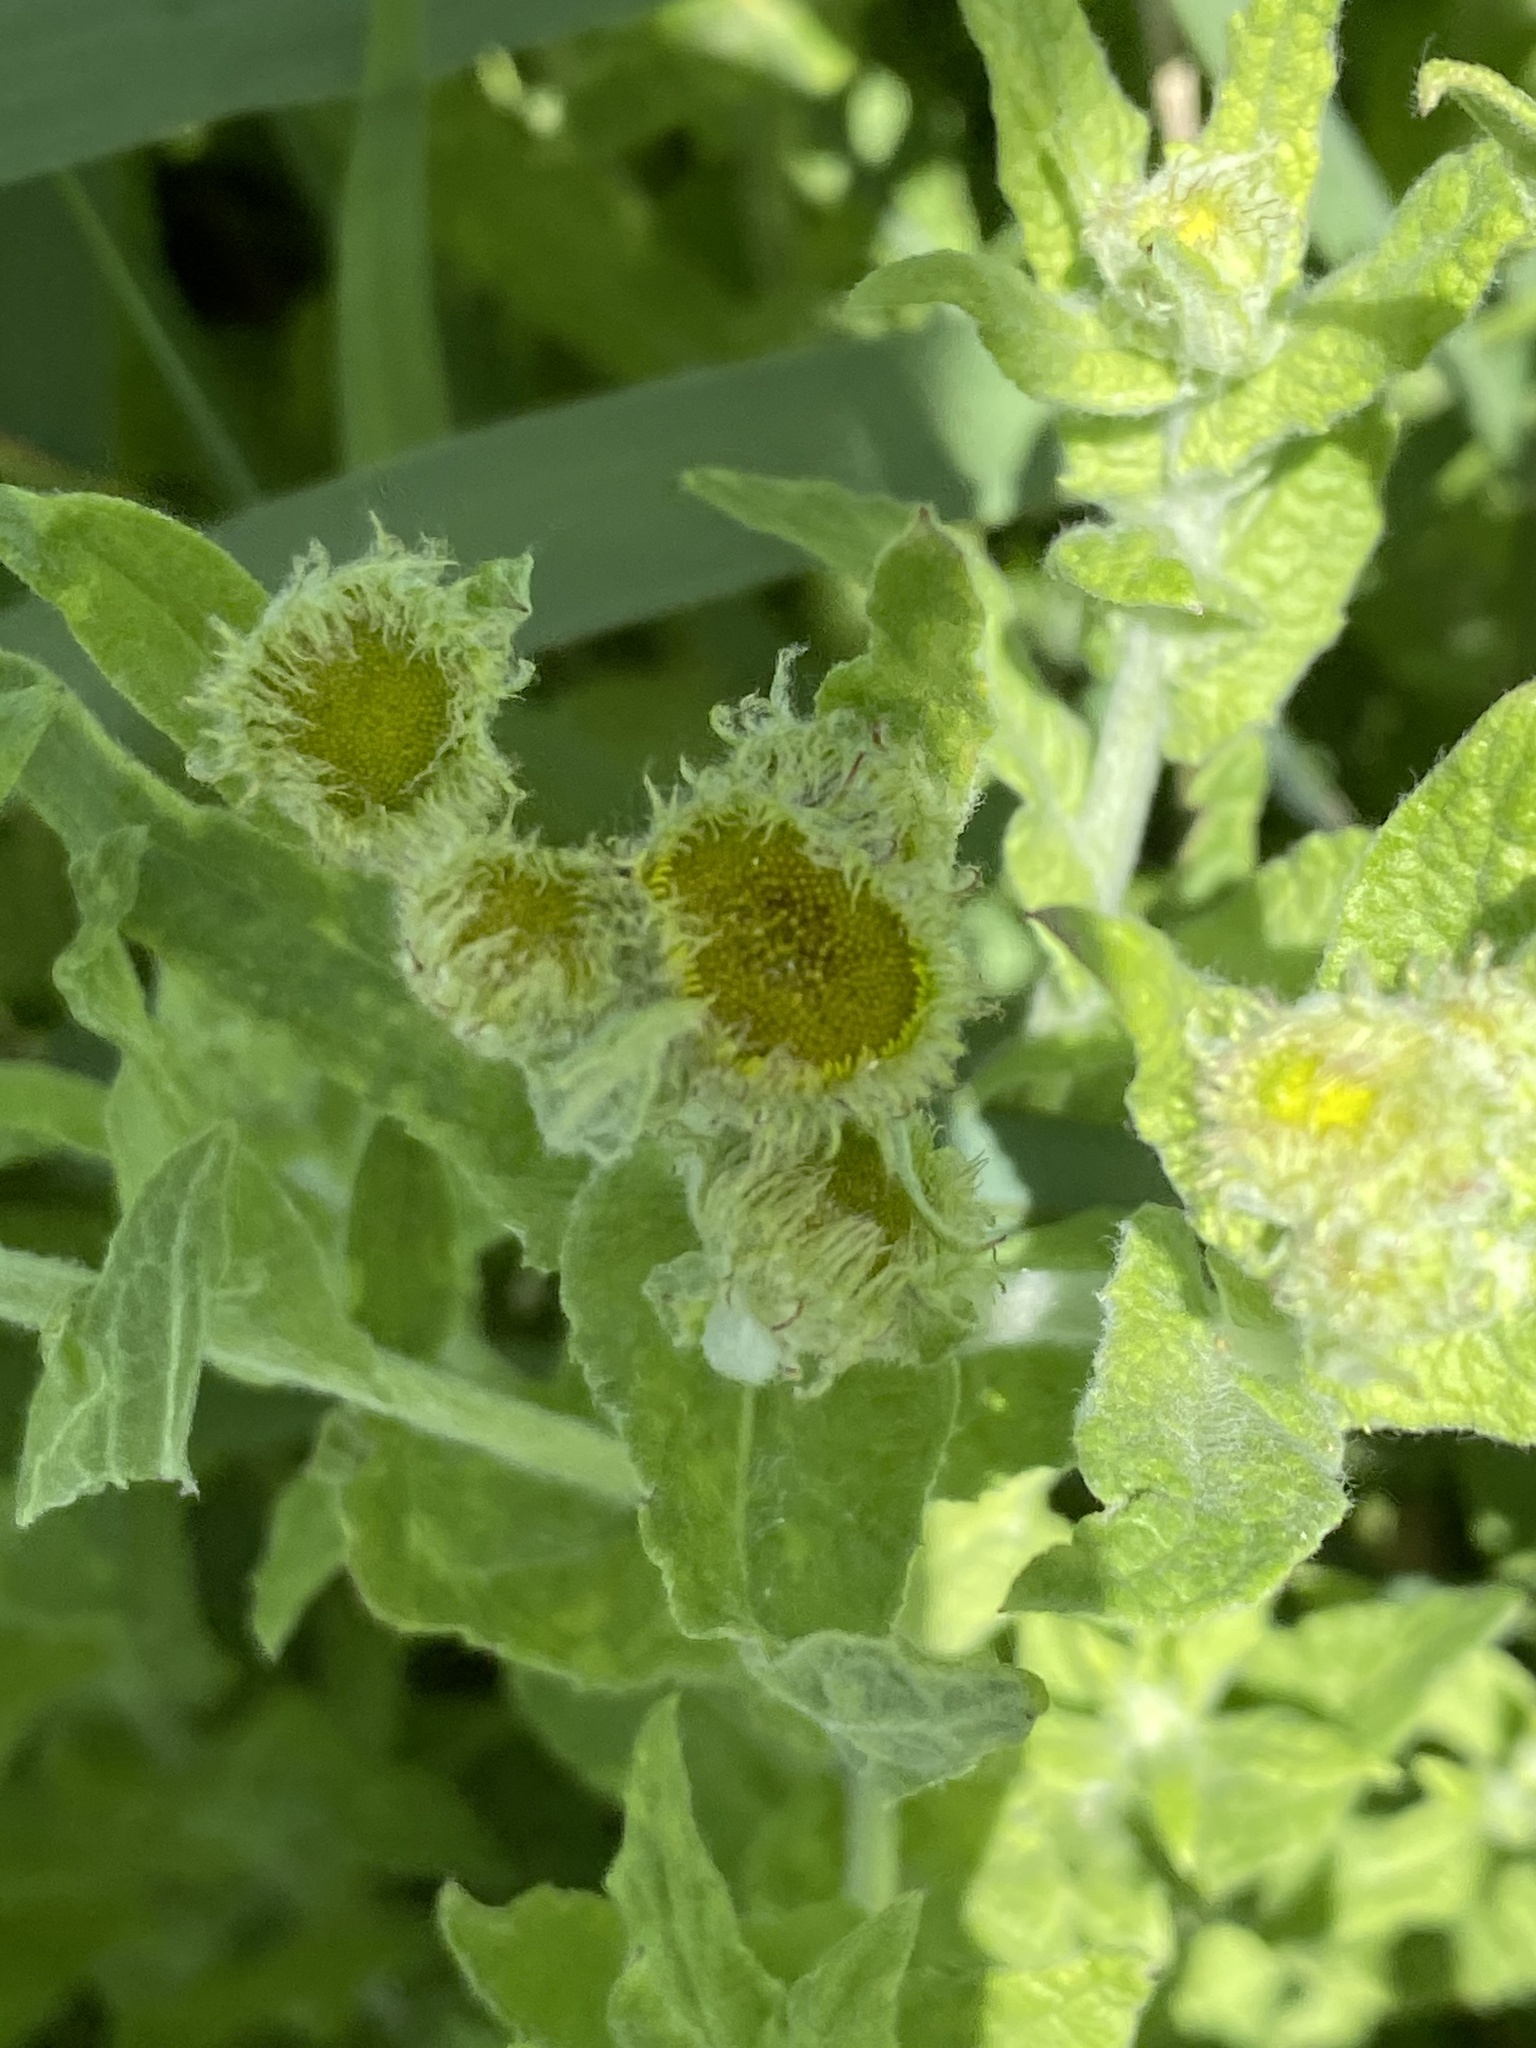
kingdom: Plantae
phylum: Tracheophyta
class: Magnoliopsida
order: Asterales
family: Asteraceae
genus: Pulicaria
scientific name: Pulicaria dysenterica
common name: Common fleabane
